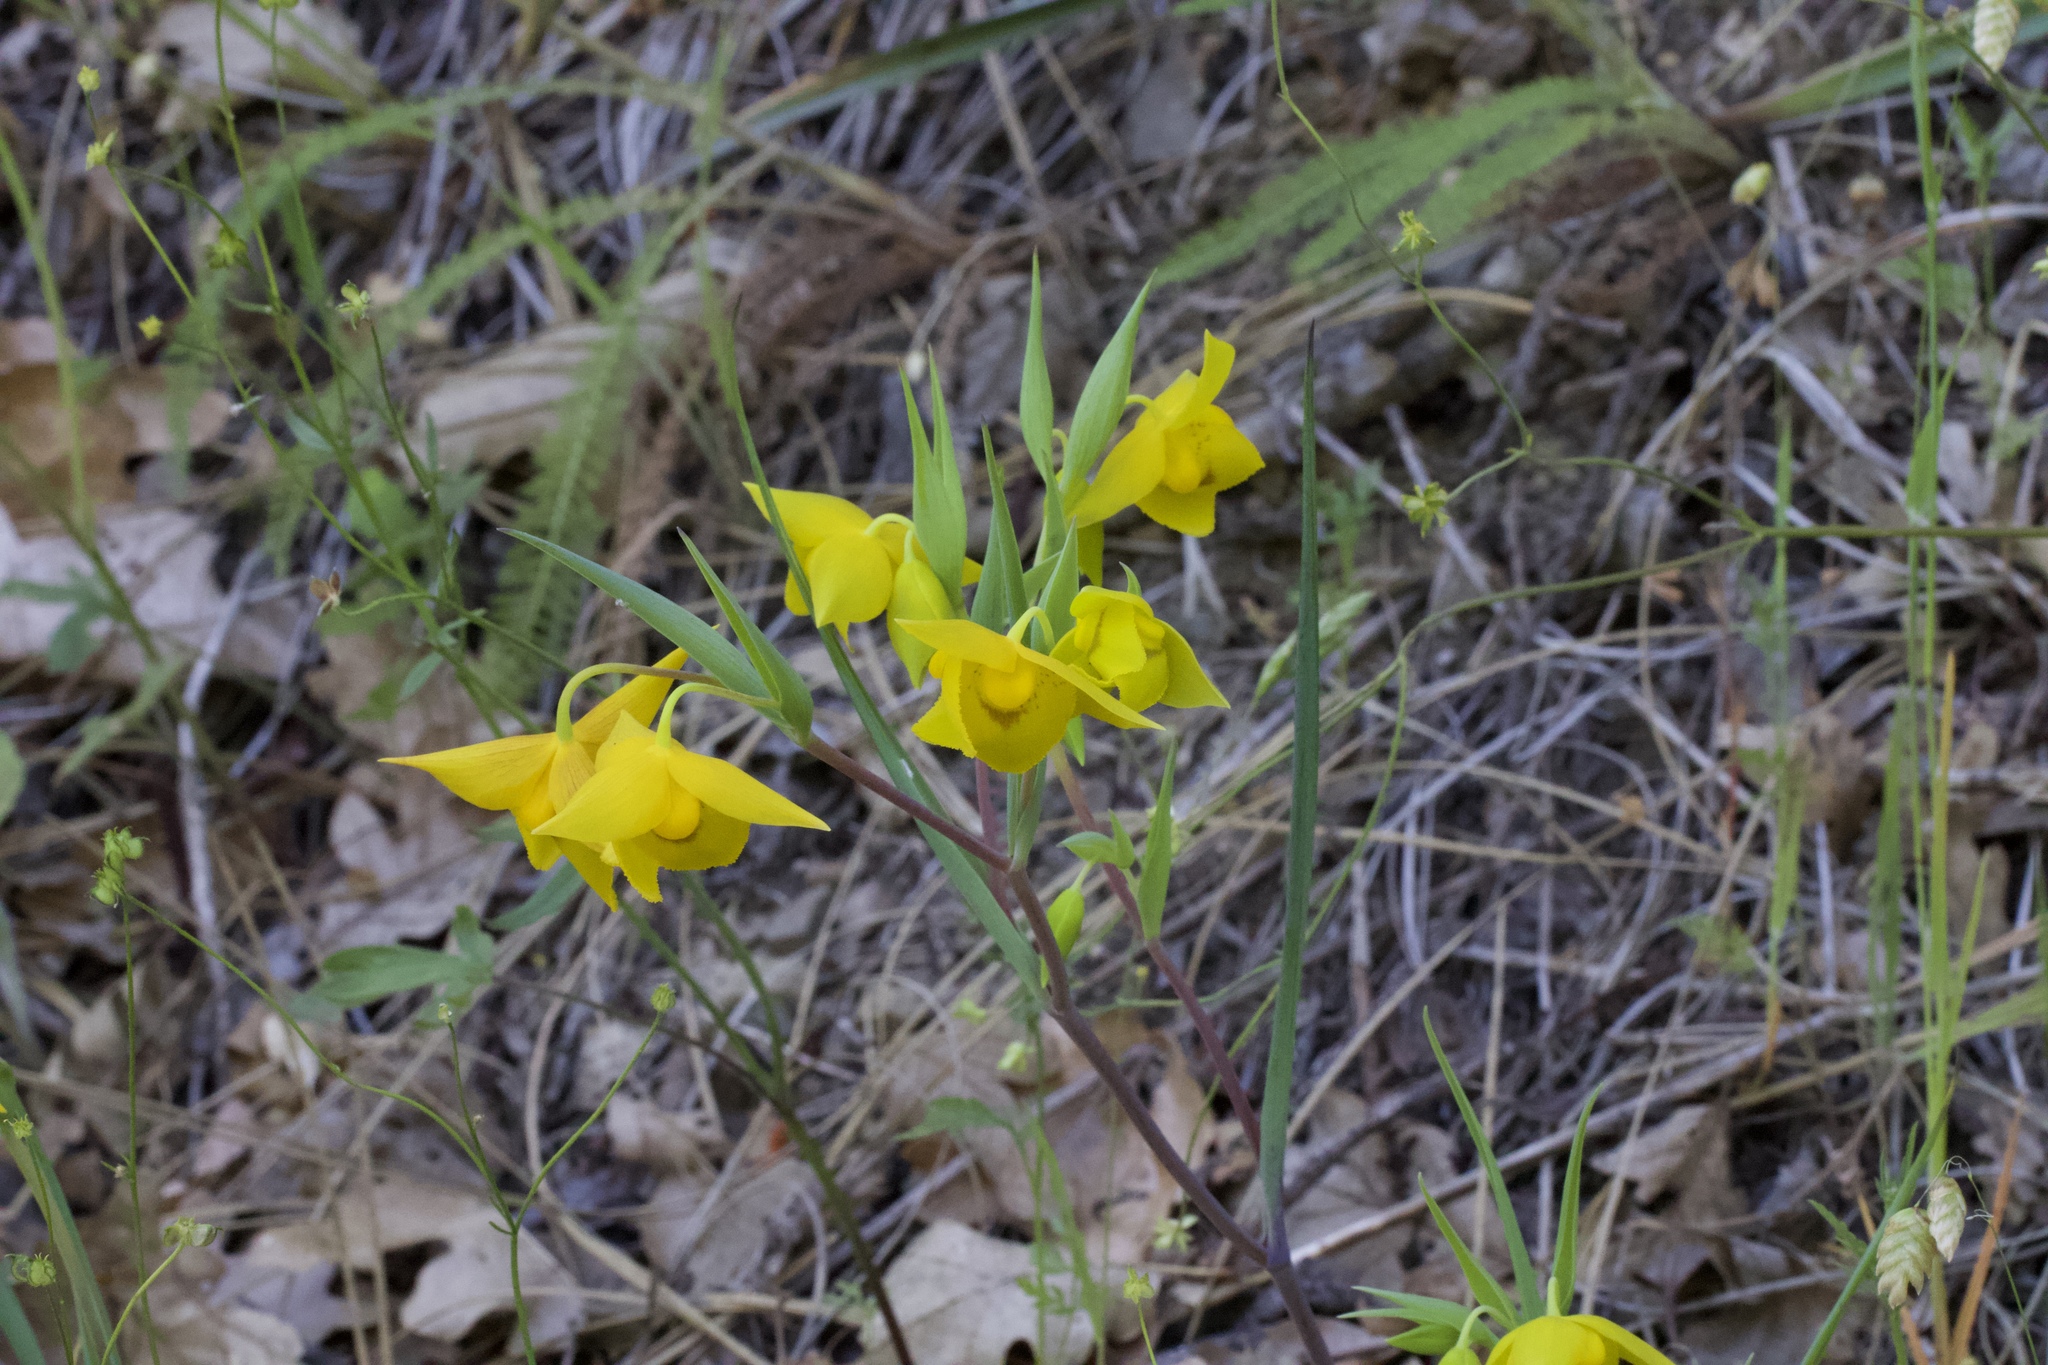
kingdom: Plantae
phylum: Tracheophyta
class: Liliopsida
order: Liliales
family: Liliaceae
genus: Calochortus
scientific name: Calochortus amabilis
